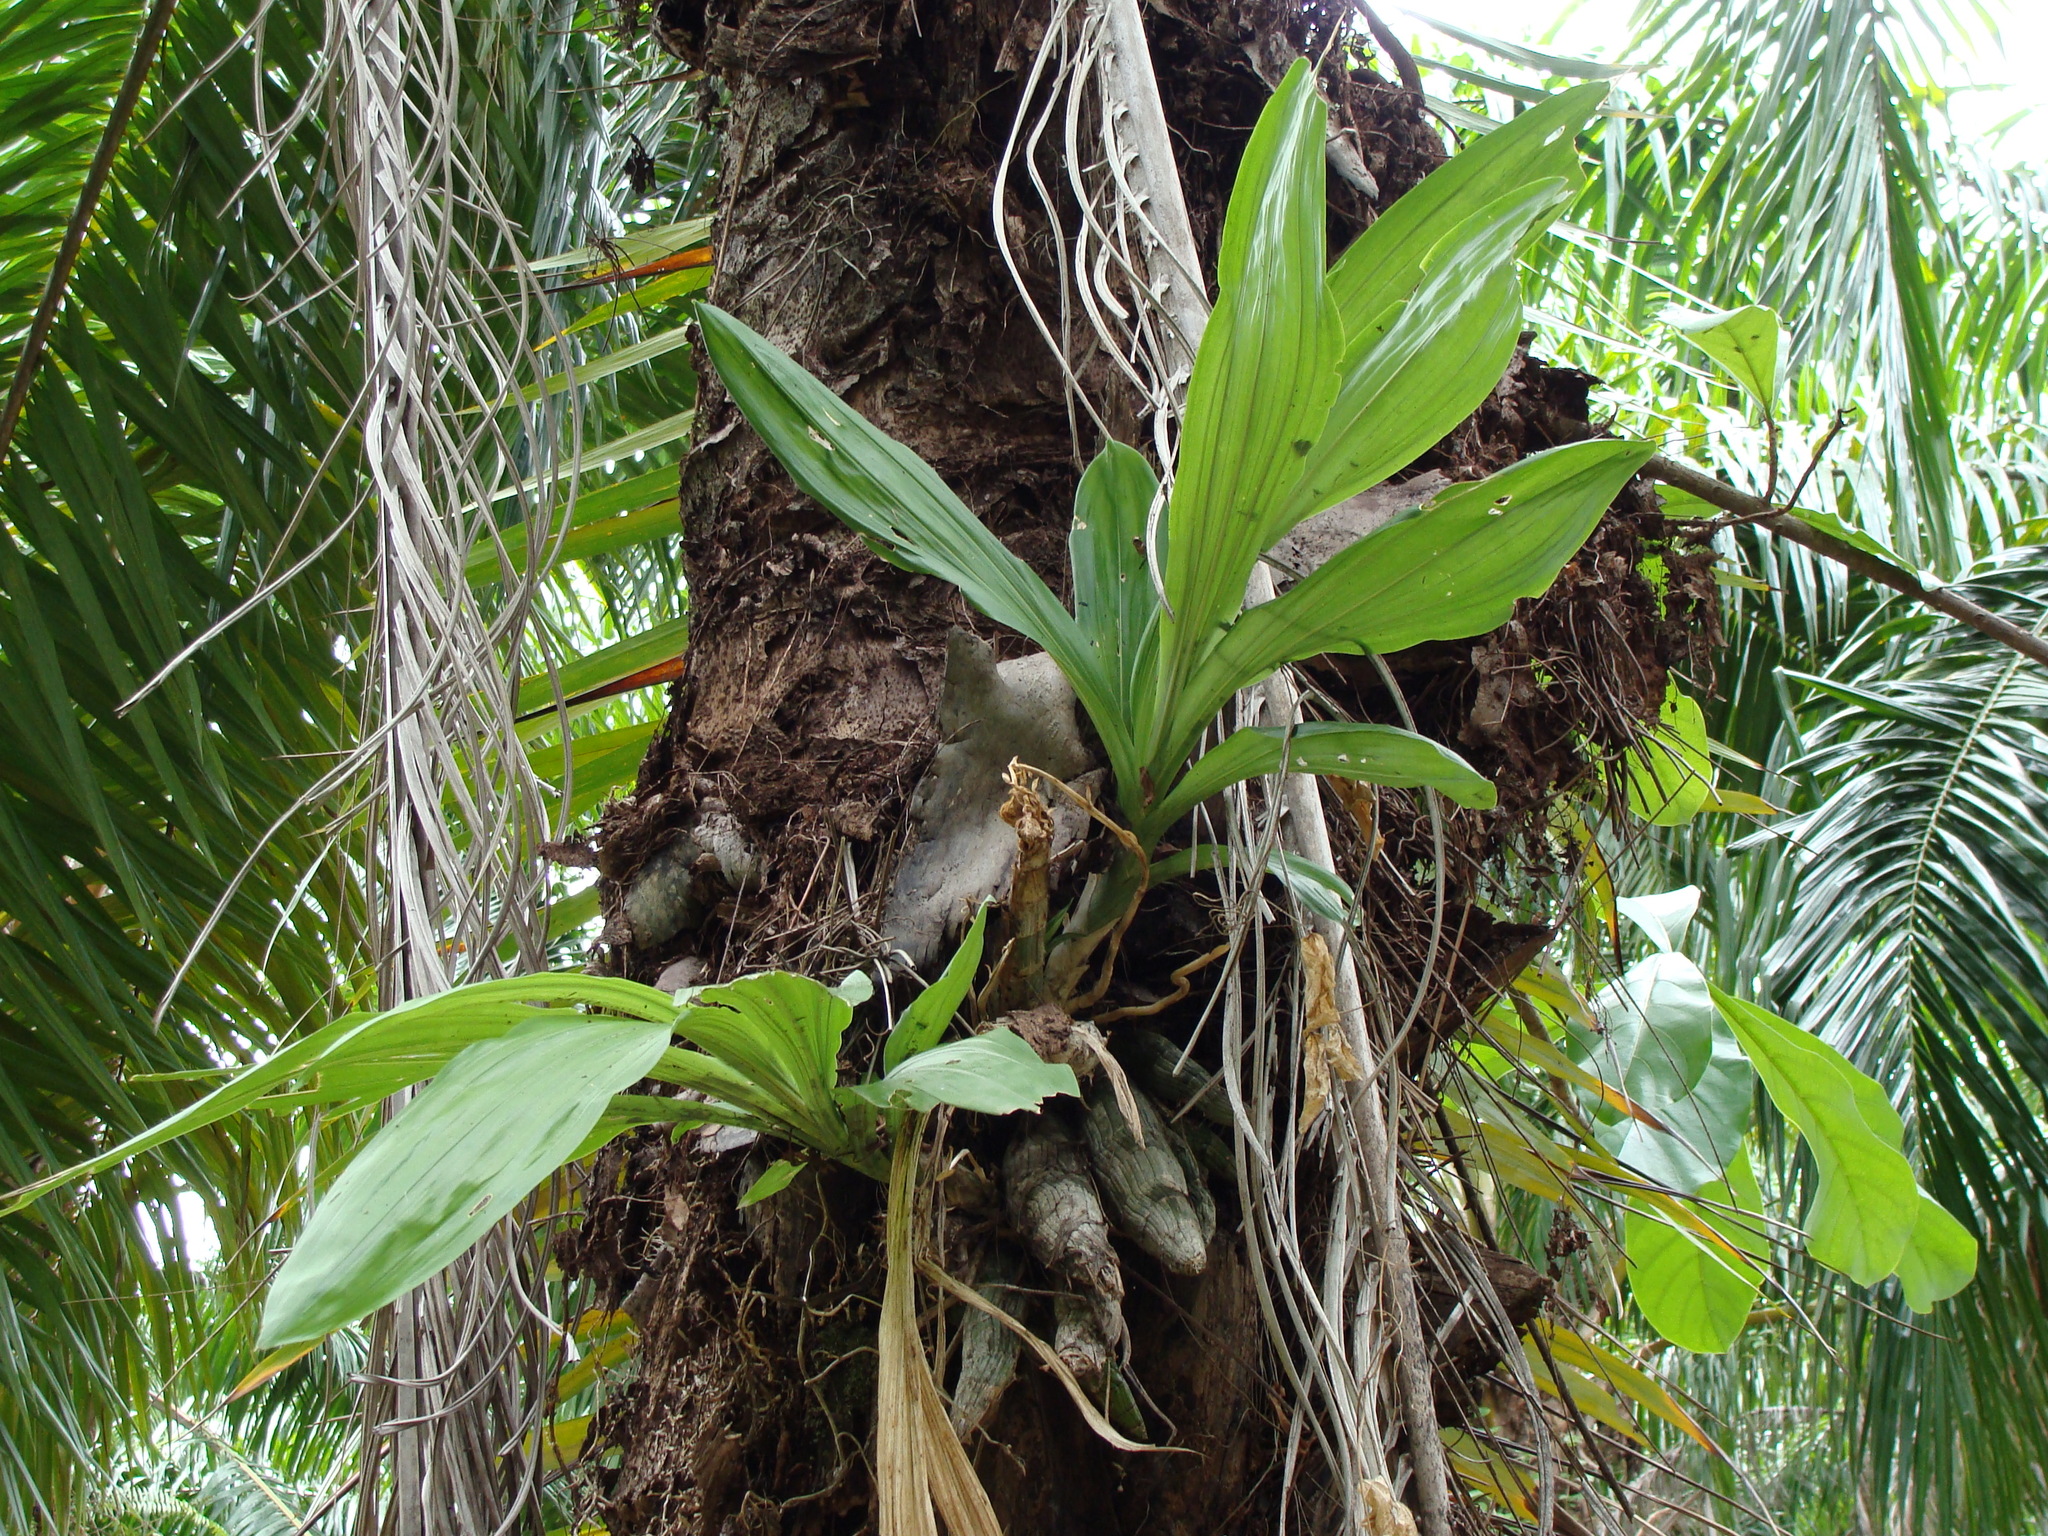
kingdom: Plantae
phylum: Tracheophyta
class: Liliopsida
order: Asparagales
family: Orchidaceae
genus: Catasetum
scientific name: Catasetum integerrimum
